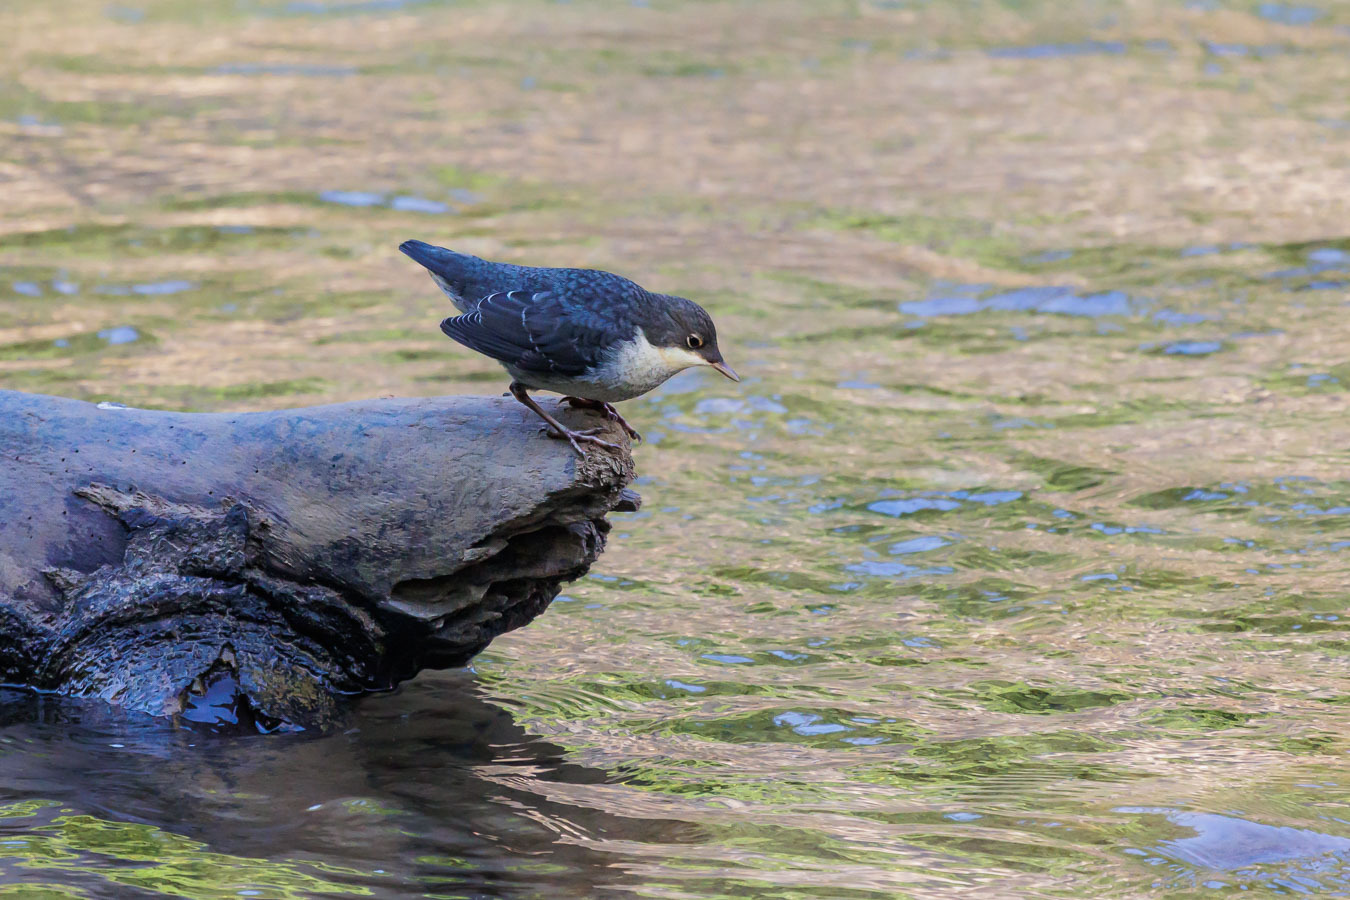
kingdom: Animalia
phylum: Chordata
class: Aves
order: Passeriformes
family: Cinclidae
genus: Cinclus
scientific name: Cinclus cinclus
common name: White-throated dipper
